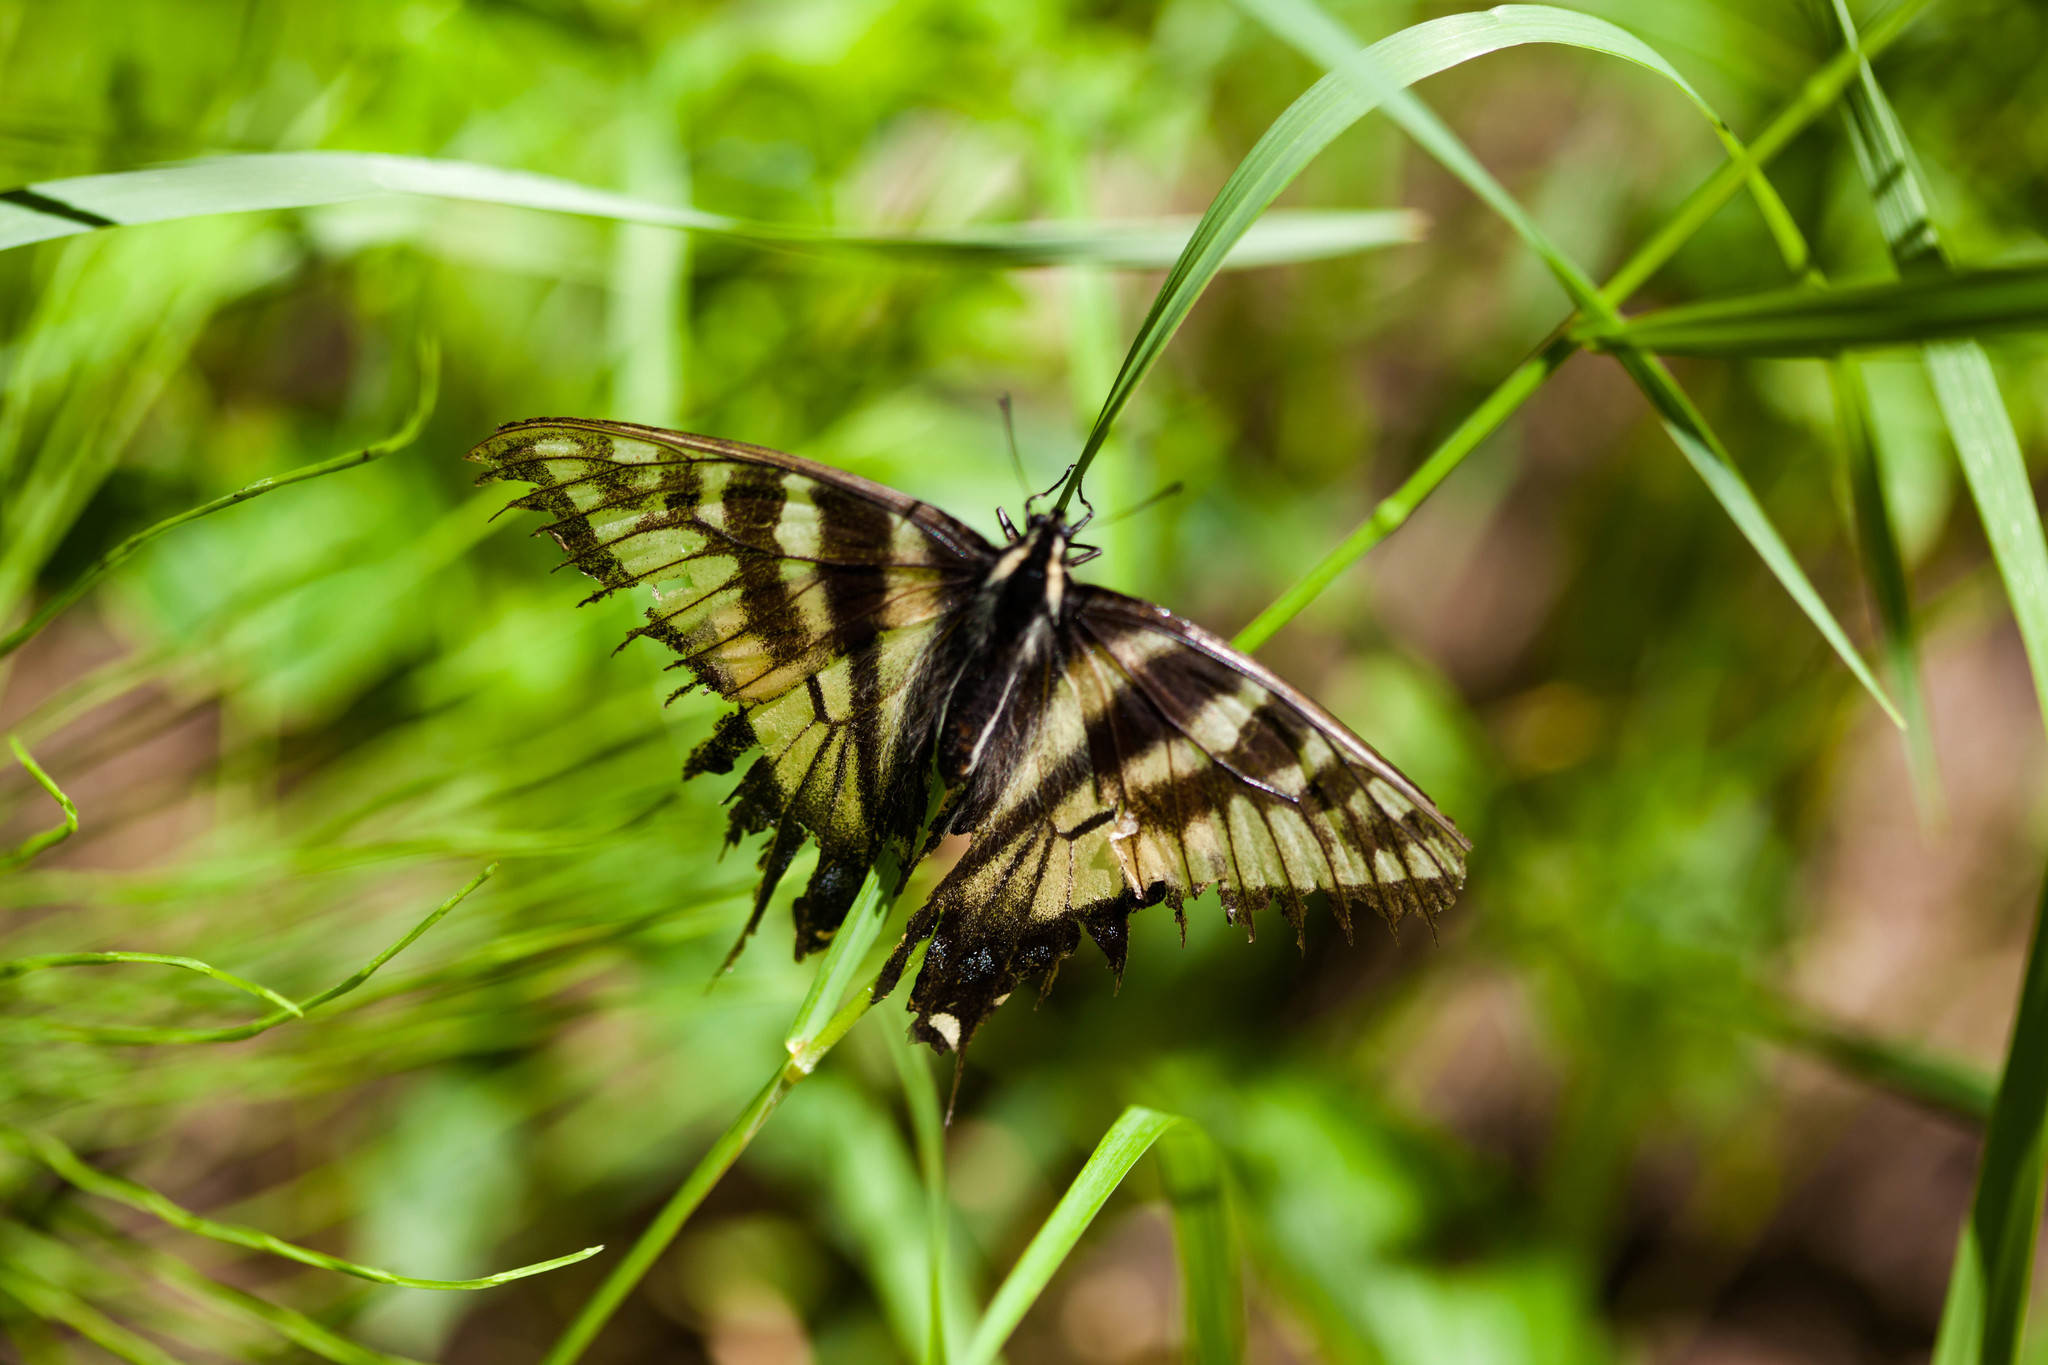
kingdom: Animalia
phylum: Arthropoda
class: Insecta
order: Lepidoptera
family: Papilionidae
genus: Papilio
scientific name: Papilio canadensis
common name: Canadian tiger swallowtail
